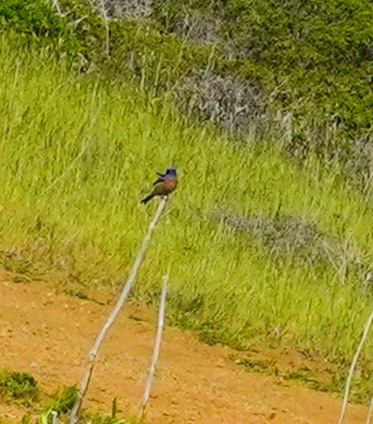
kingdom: Animalia
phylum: Chordata
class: Aves
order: Passeriformes
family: Turdidae
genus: Sialia
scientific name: Sialia mexicana
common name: Western bluebird
